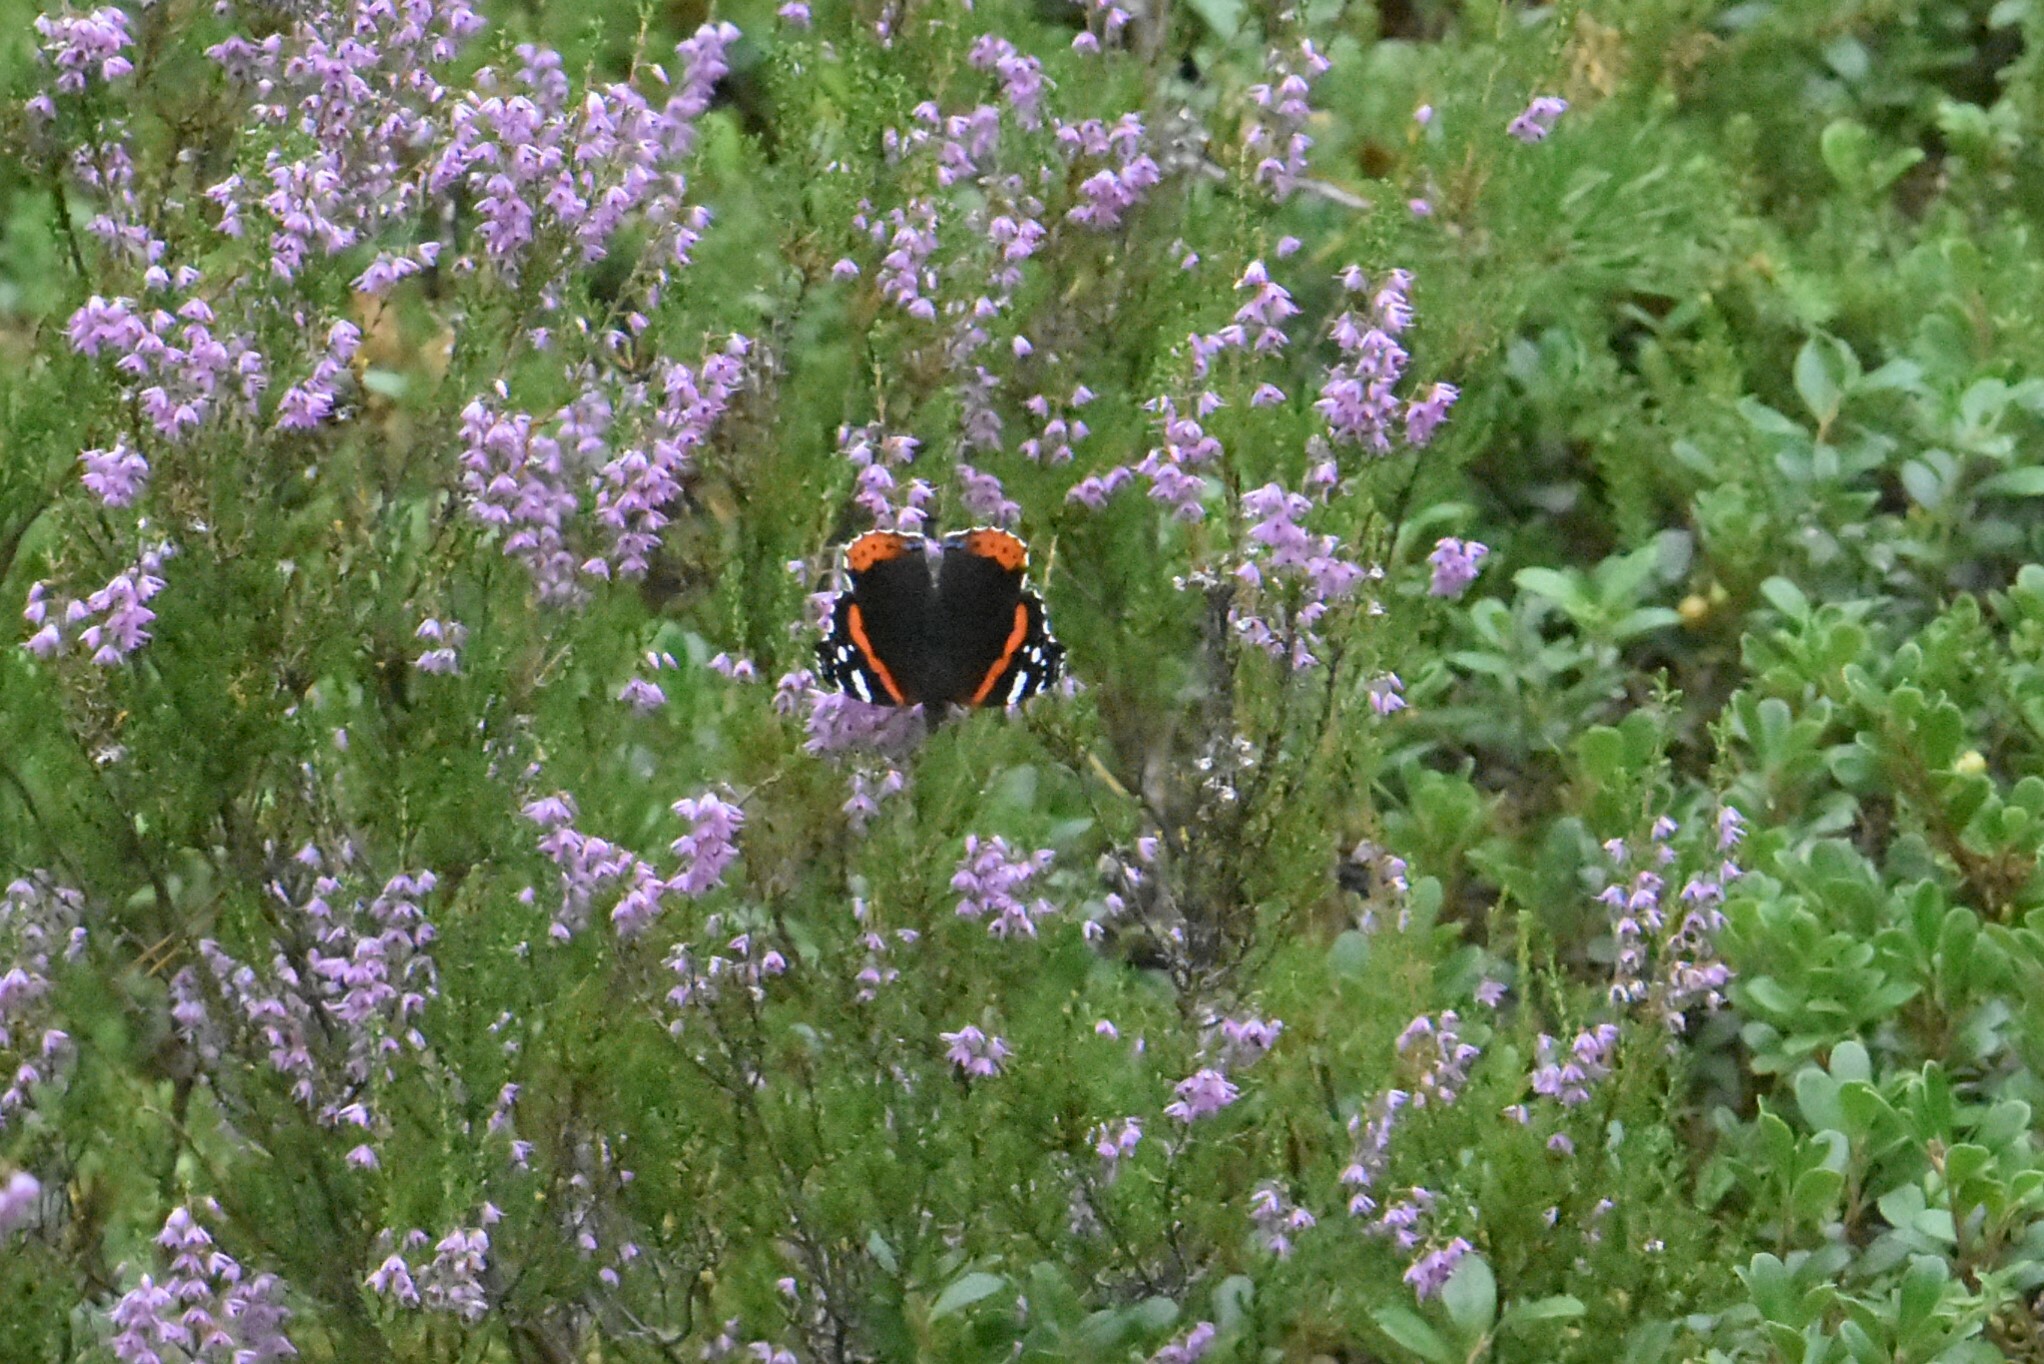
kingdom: Animalia
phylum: Arthropoda
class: Insecta
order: Lepidoptera
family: Nymphalidae
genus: Vanessa
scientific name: Vanessa atalanta
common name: Red admiral
